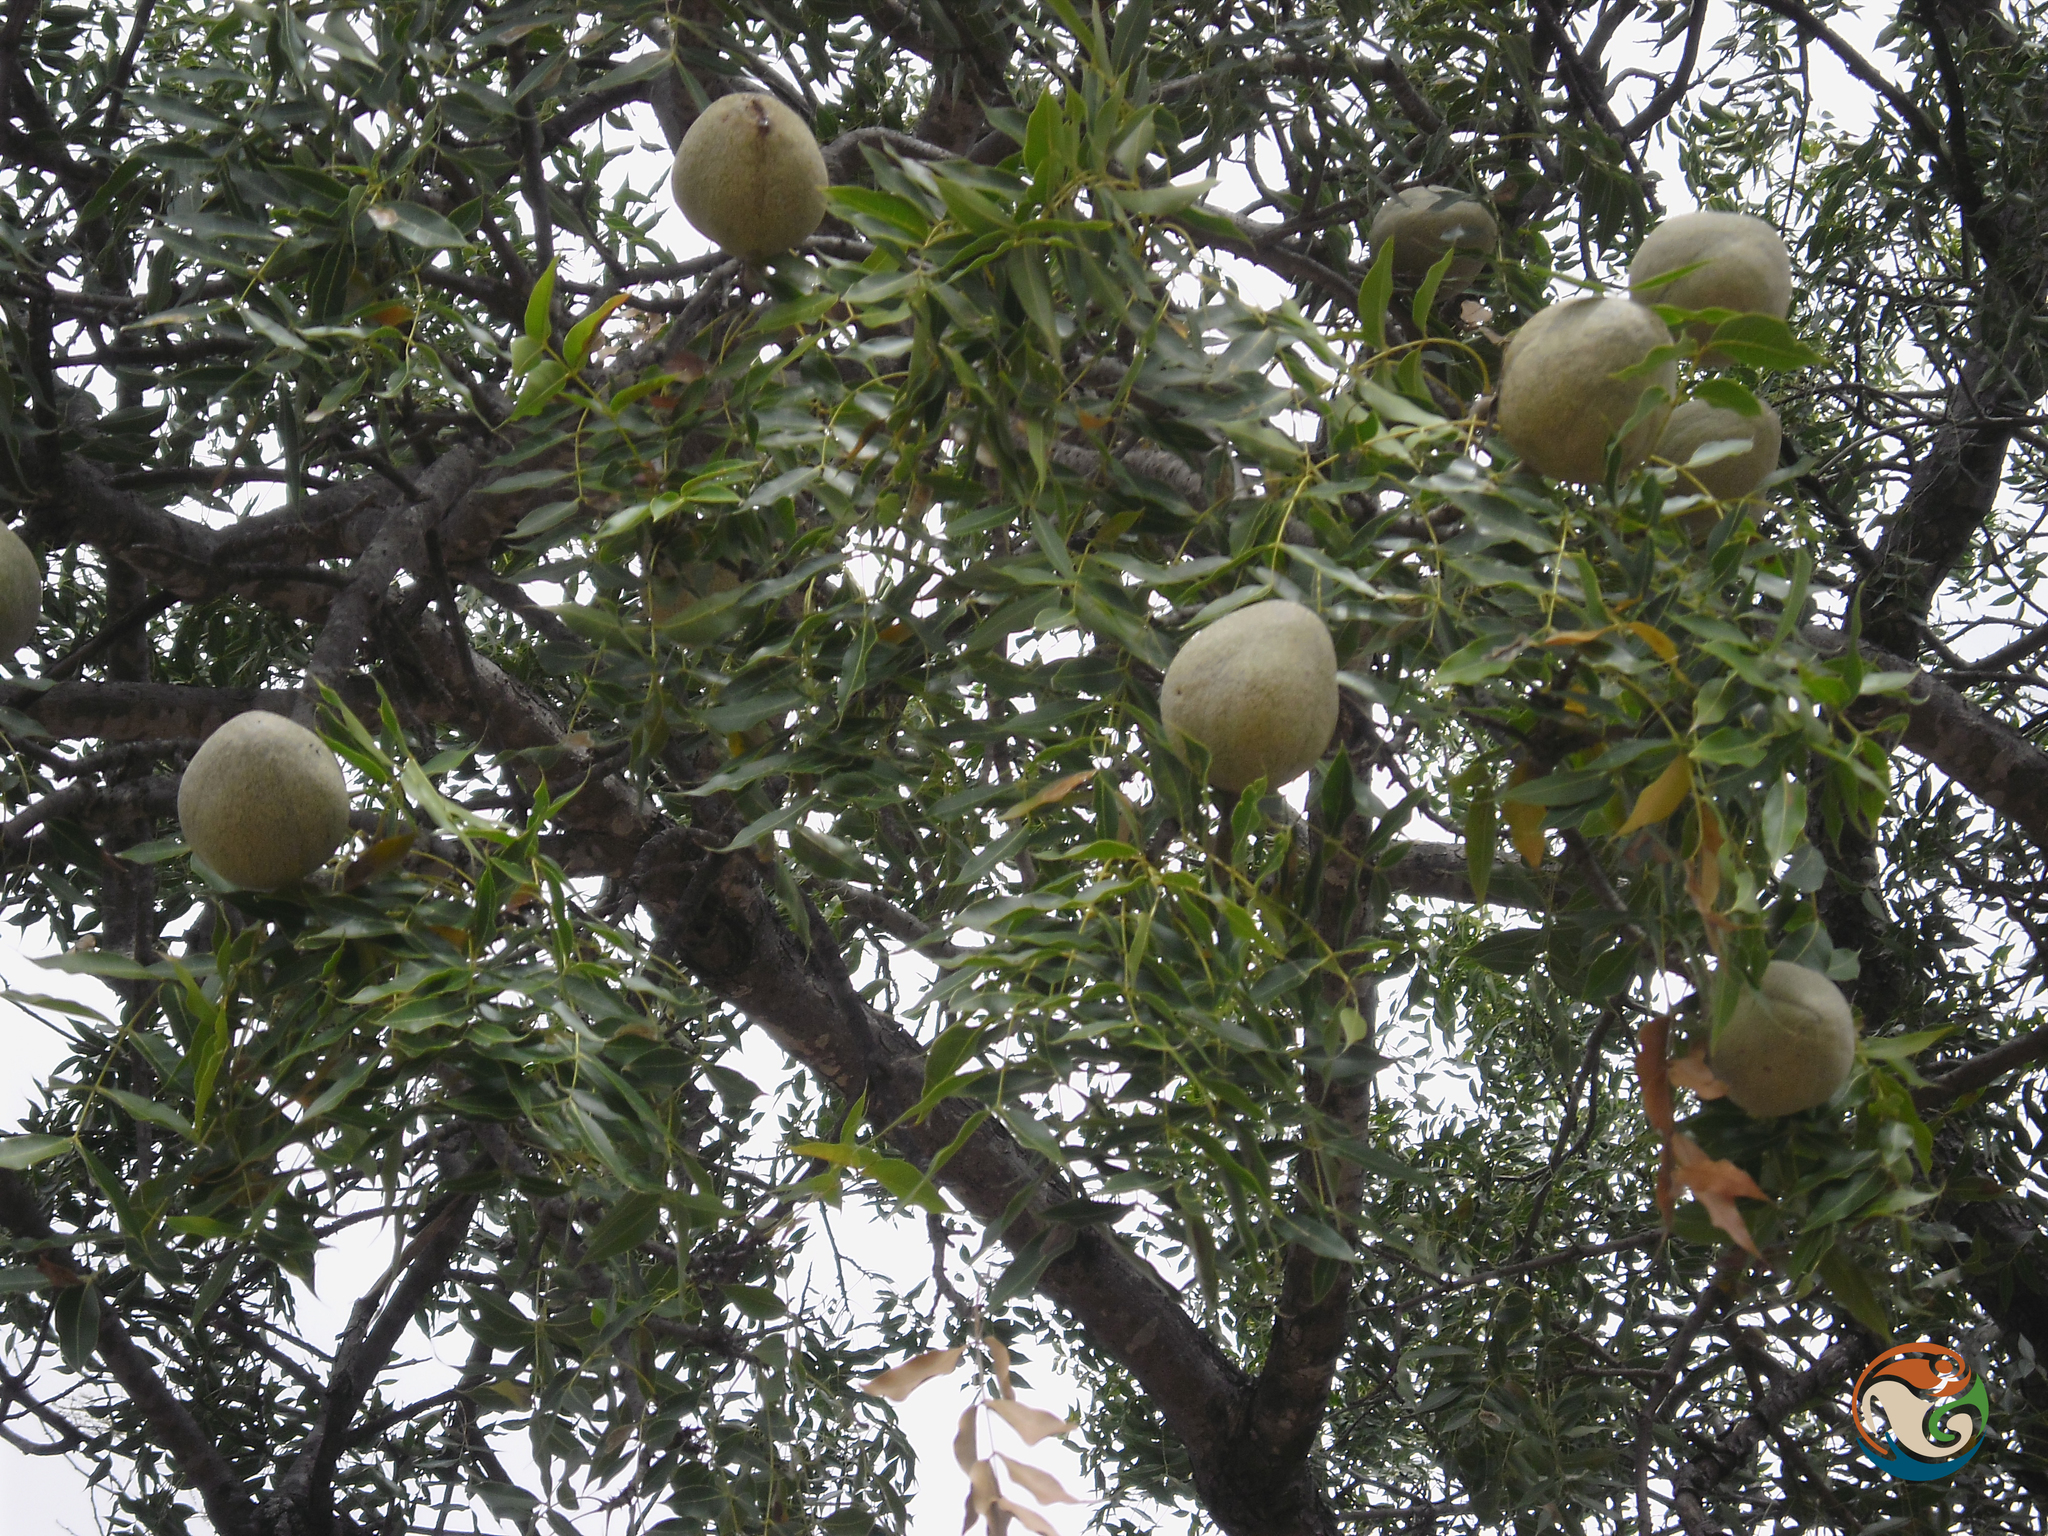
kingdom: Plantae
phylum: Tracheophyta
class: Magnoliopsida
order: Sapindales
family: Meliaceae
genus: Swietenia
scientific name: Swietenia humilis
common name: Pacific coast mahogany
